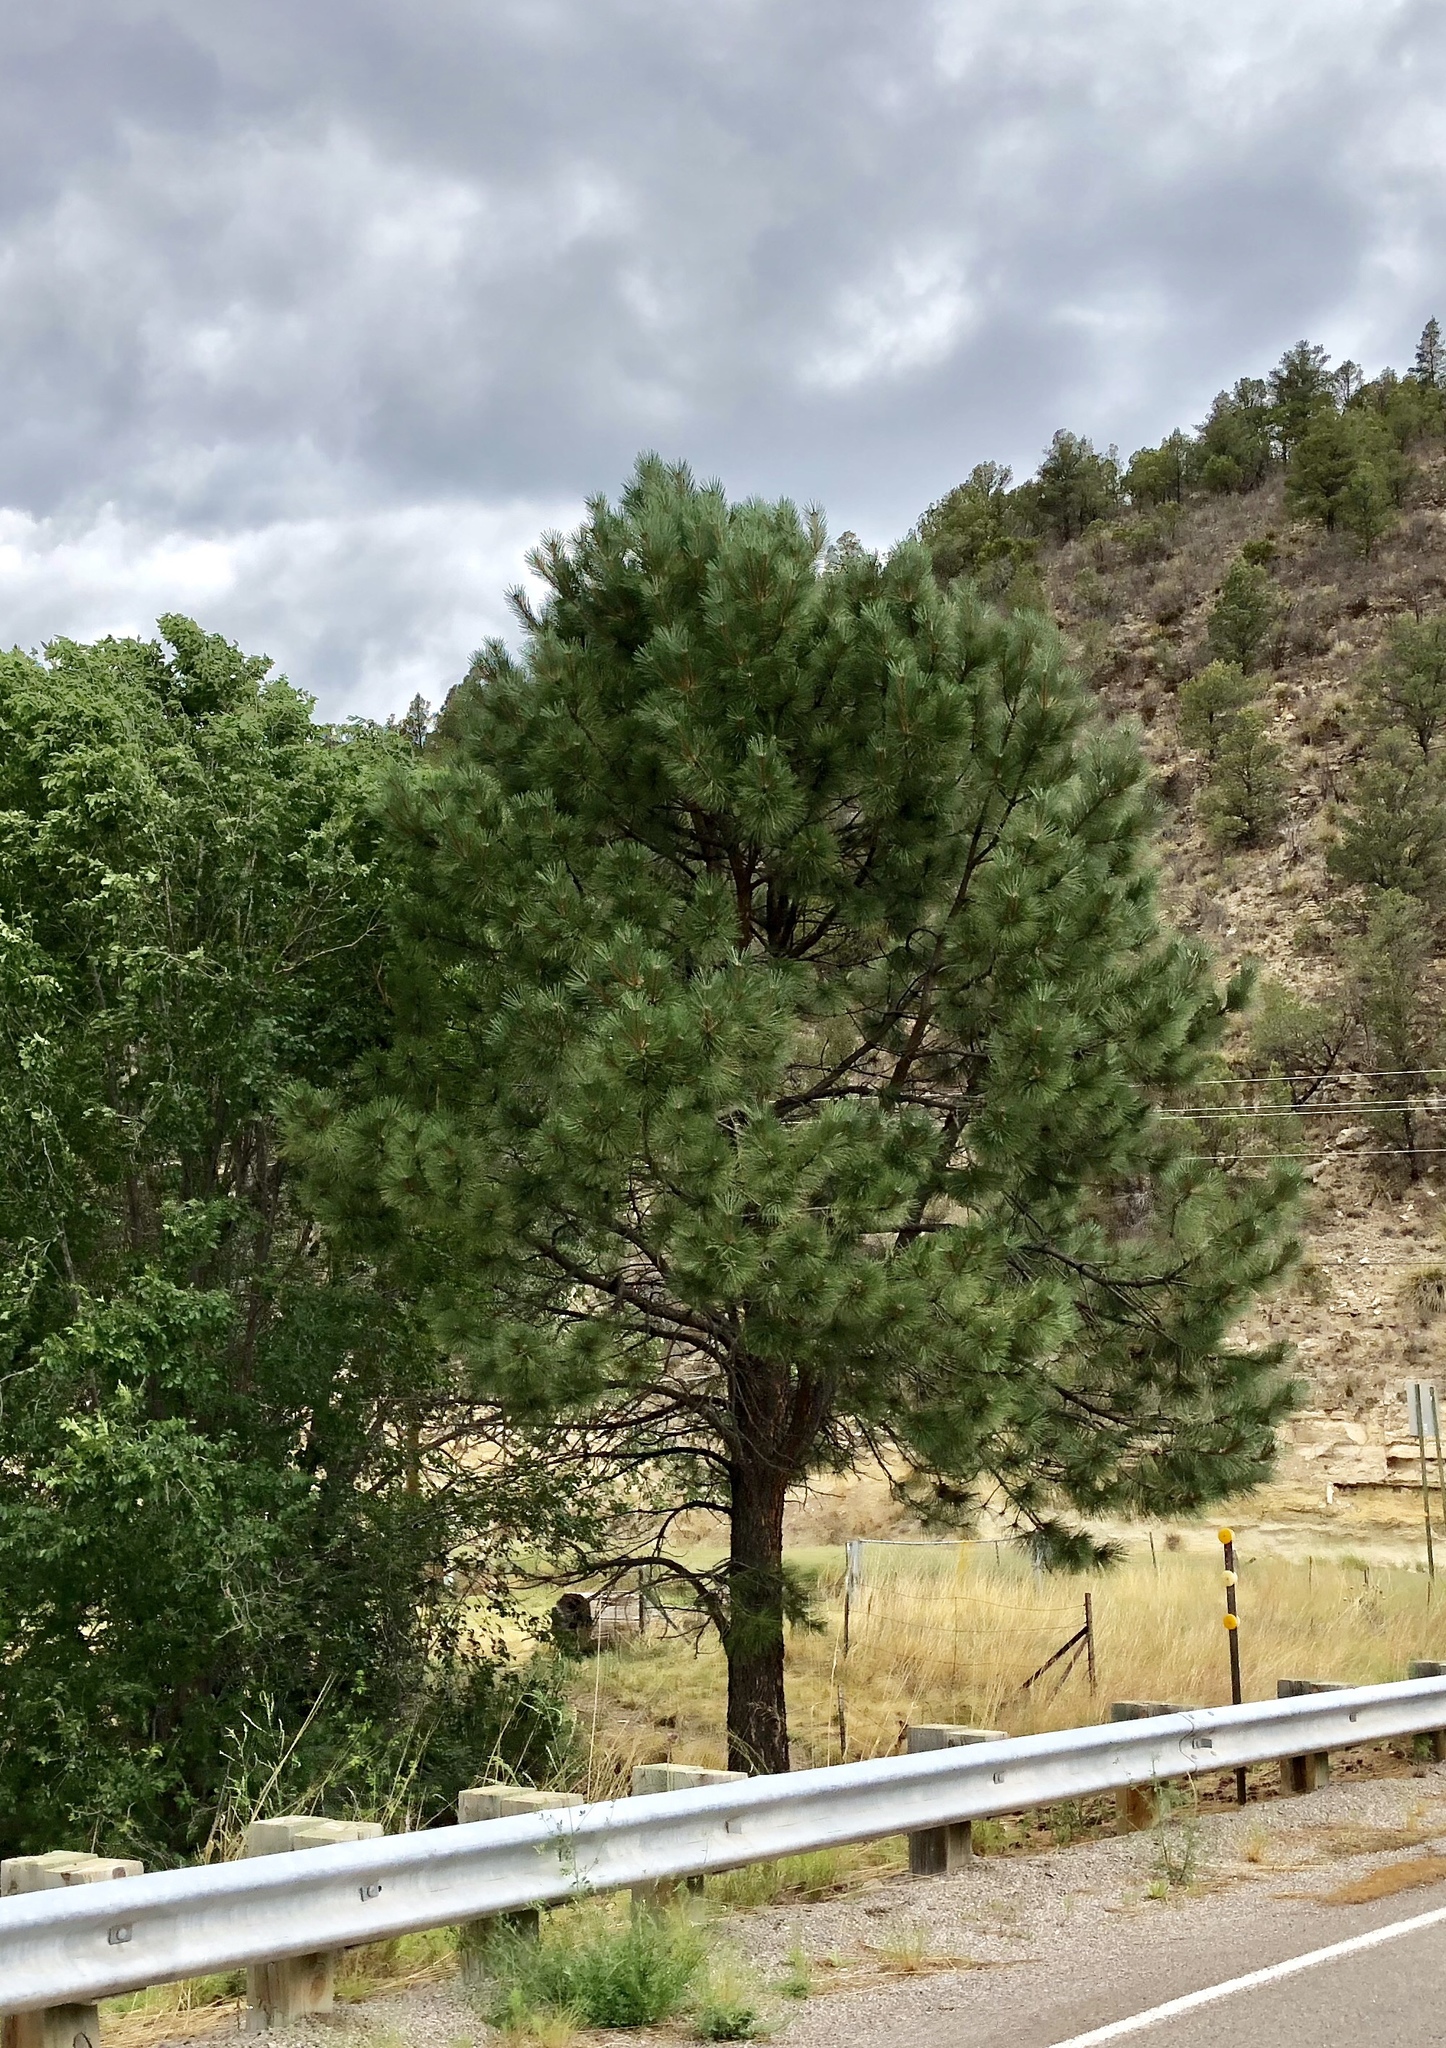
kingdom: Plantae
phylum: Tracheophyta
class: Pinopsida
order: Pinales
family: Pinaceae
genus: Pinus
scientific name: Pinus ponderosa
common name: Western yellow-pine
